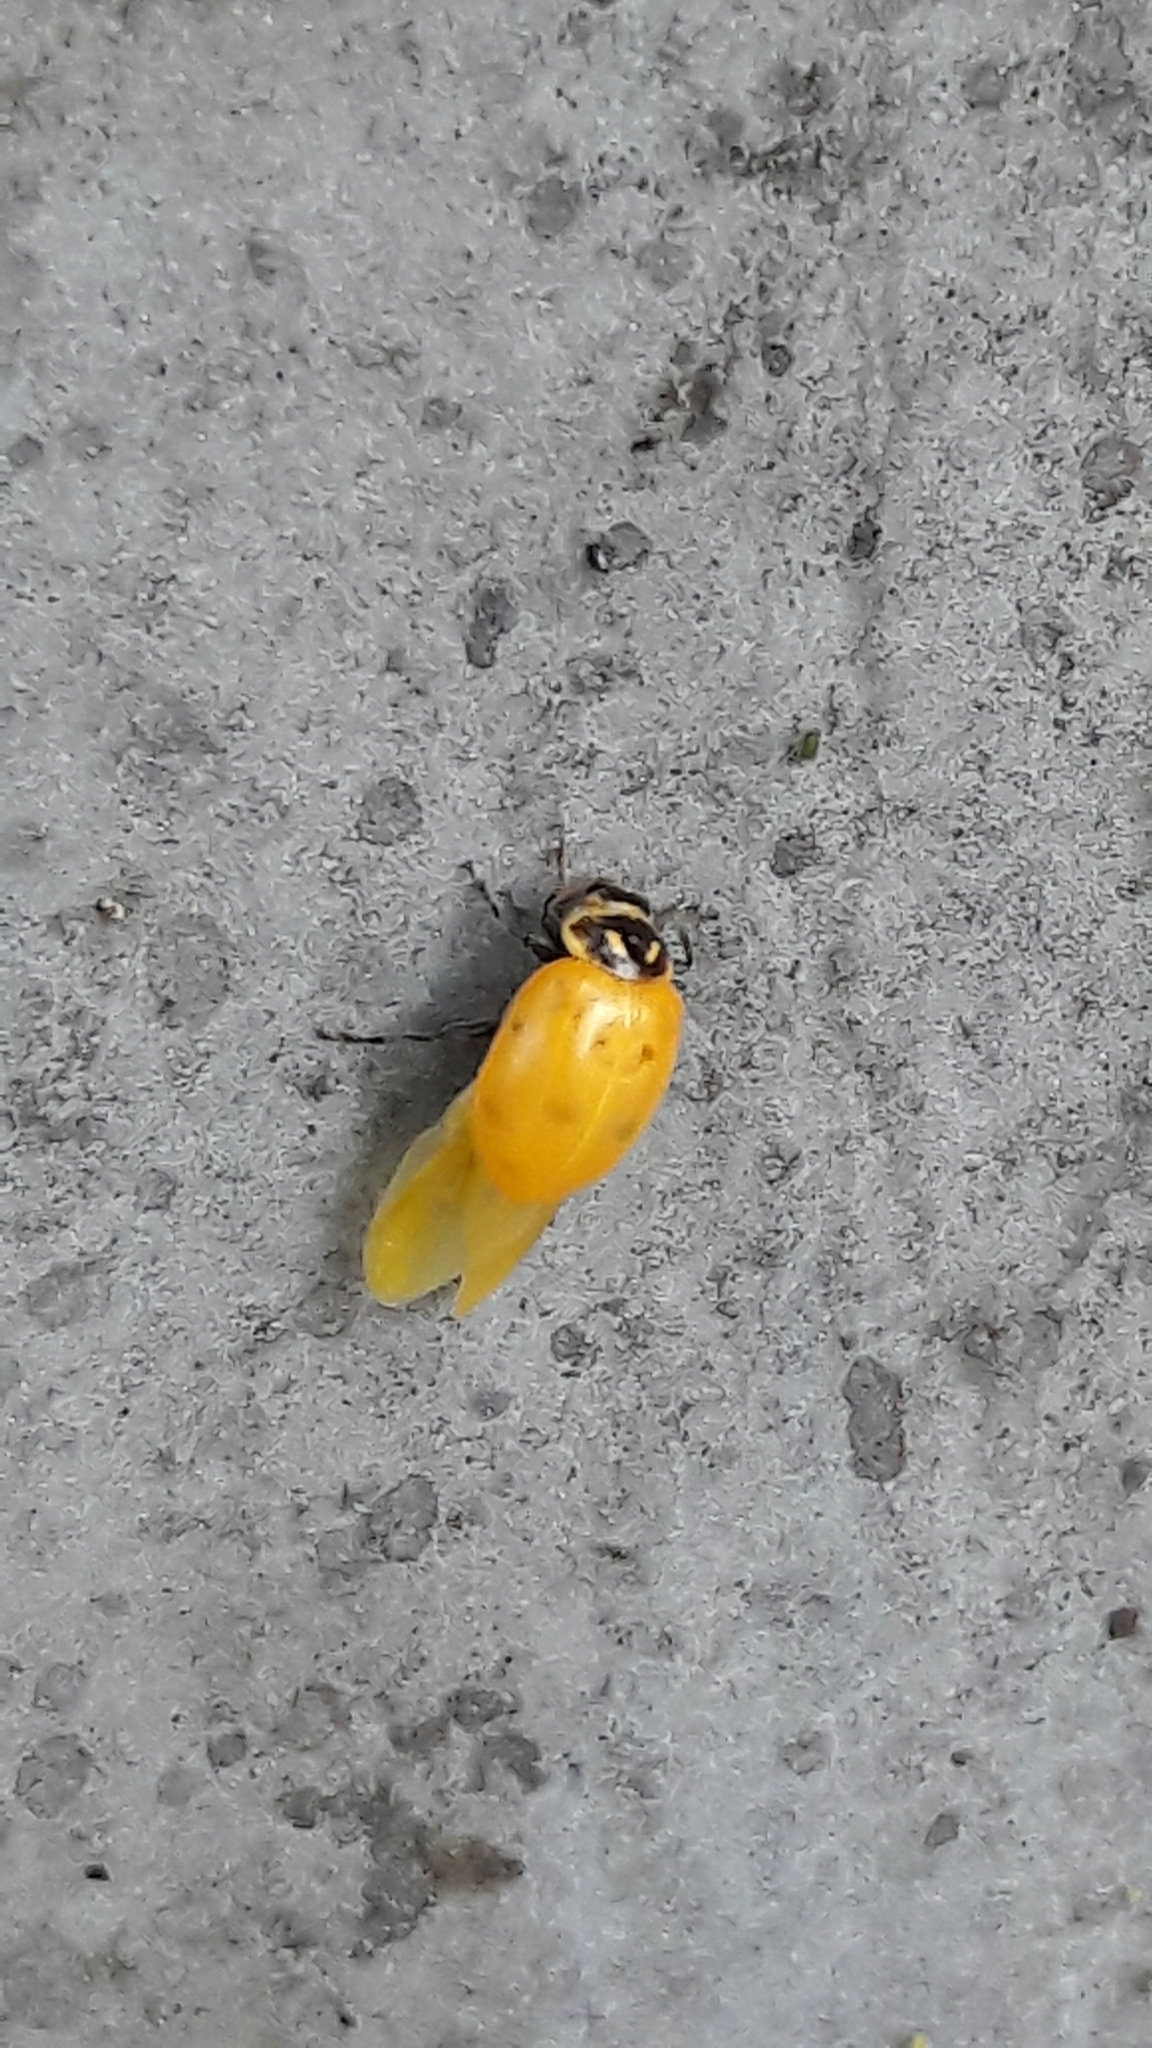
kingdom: Animalia
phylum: Arthropoda
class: Insecta
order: Coleoptera
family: Coccinellidae
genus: Hippodamia
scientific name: Hippodamia convergens
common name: Convergent lady beetle
